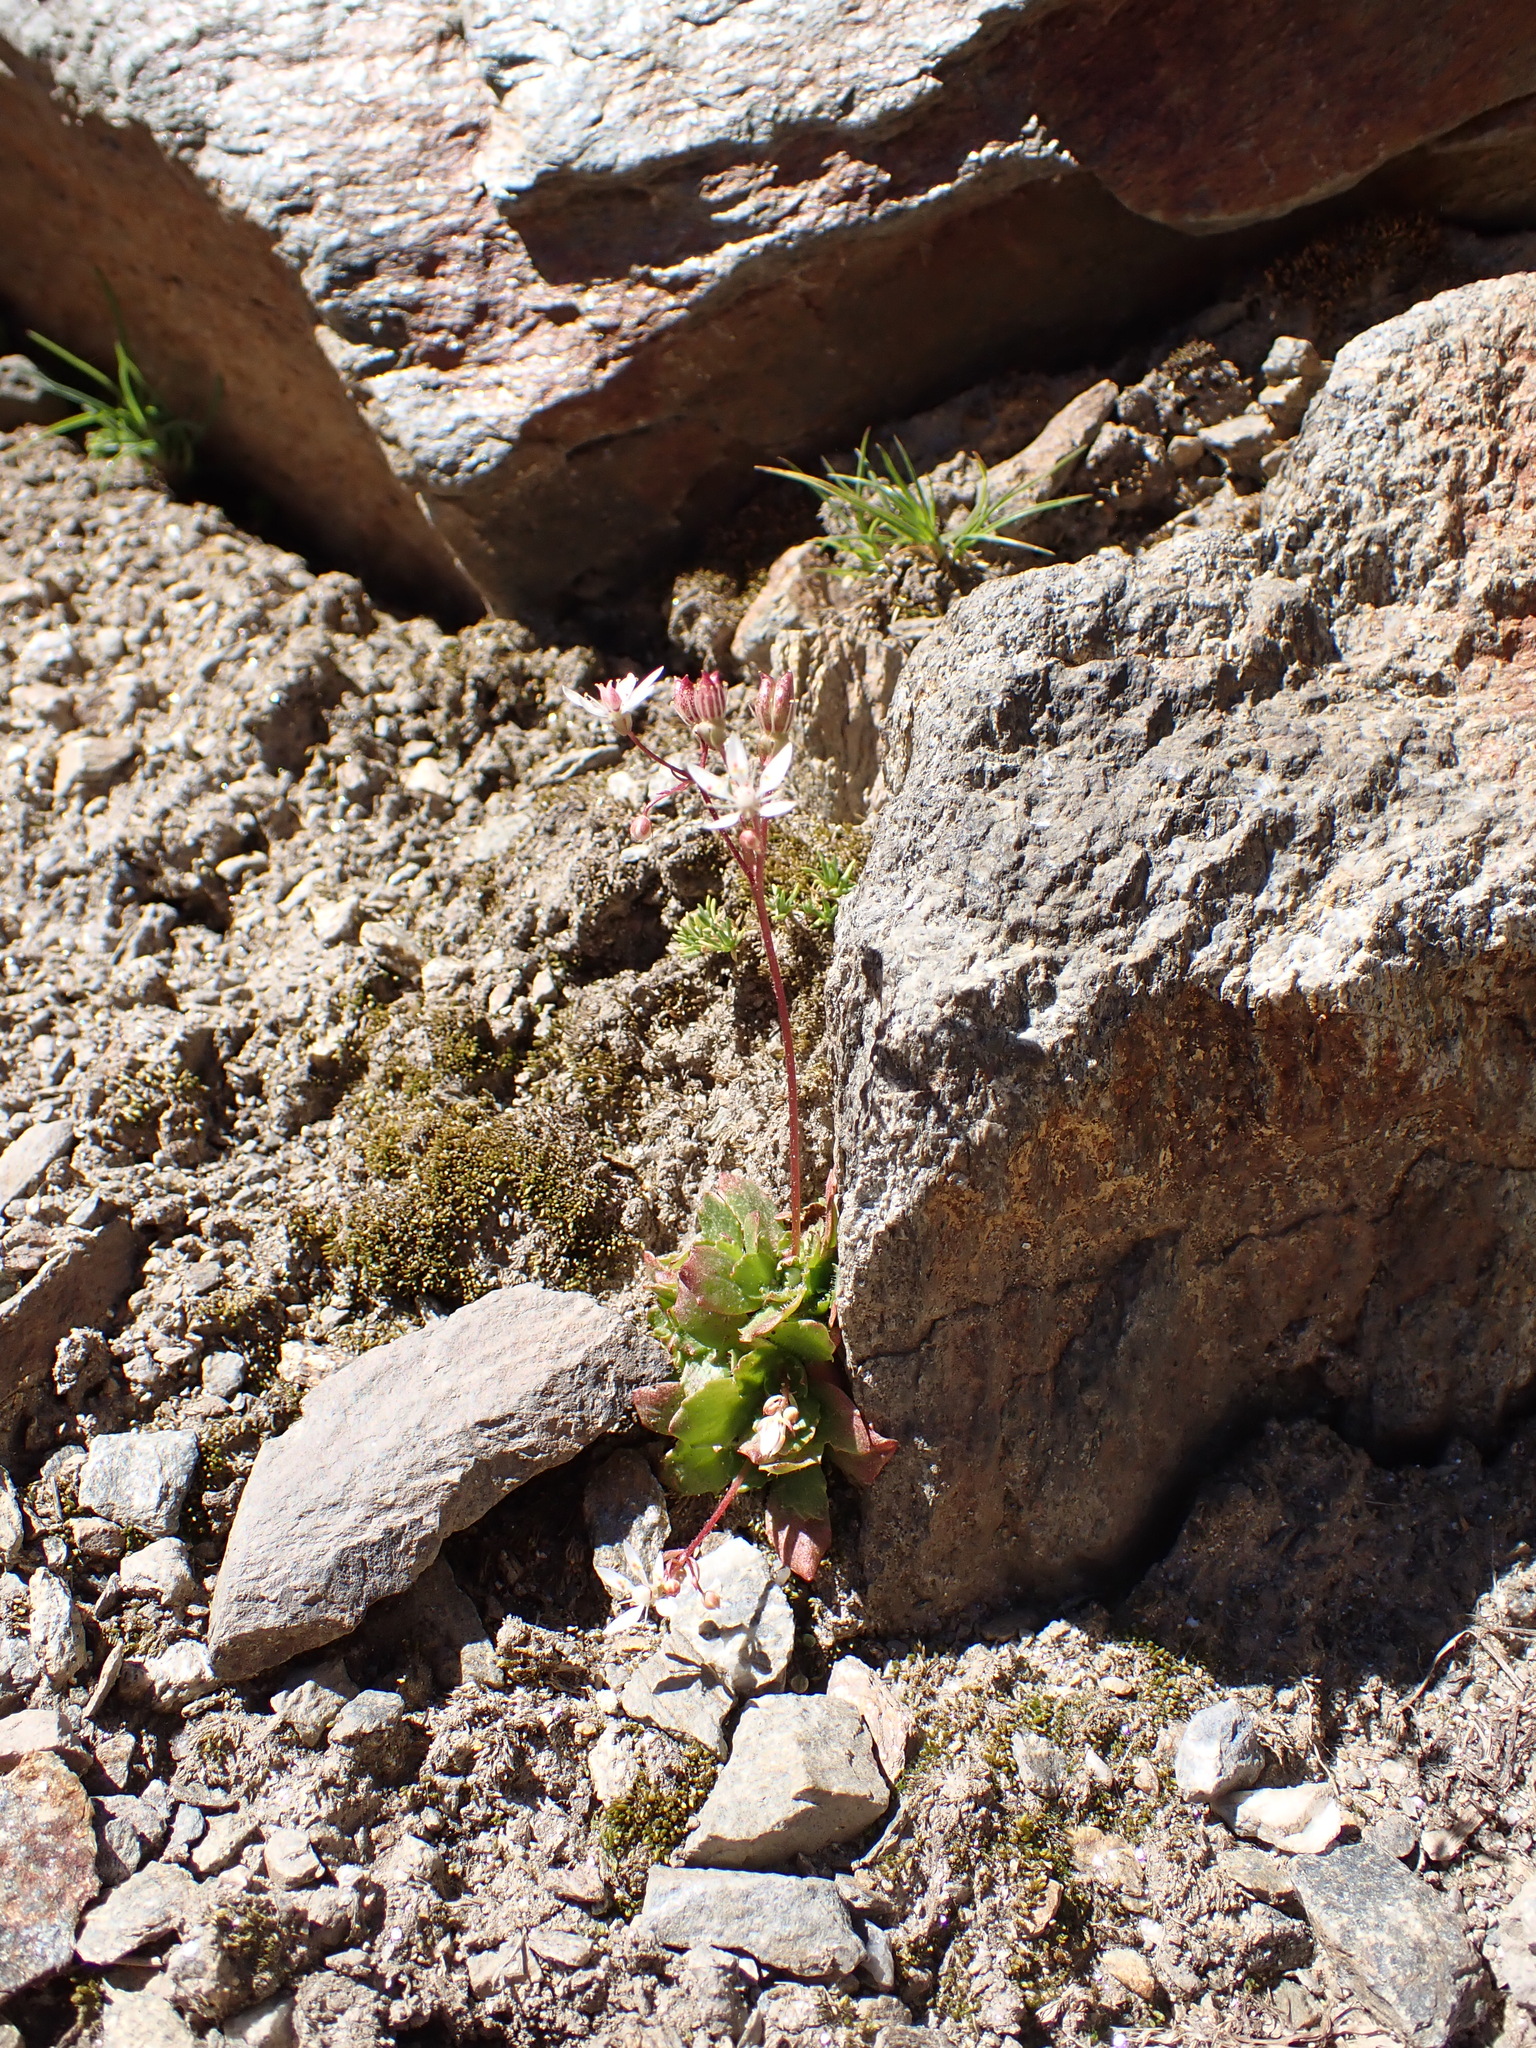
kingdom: Plantae
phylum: Tracheophyta
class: Magnoliopsida
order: Saxifragales
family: Saxifragaceae
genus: Micranthes
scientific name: Micranthes stellaris
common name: Starry saxifrage
